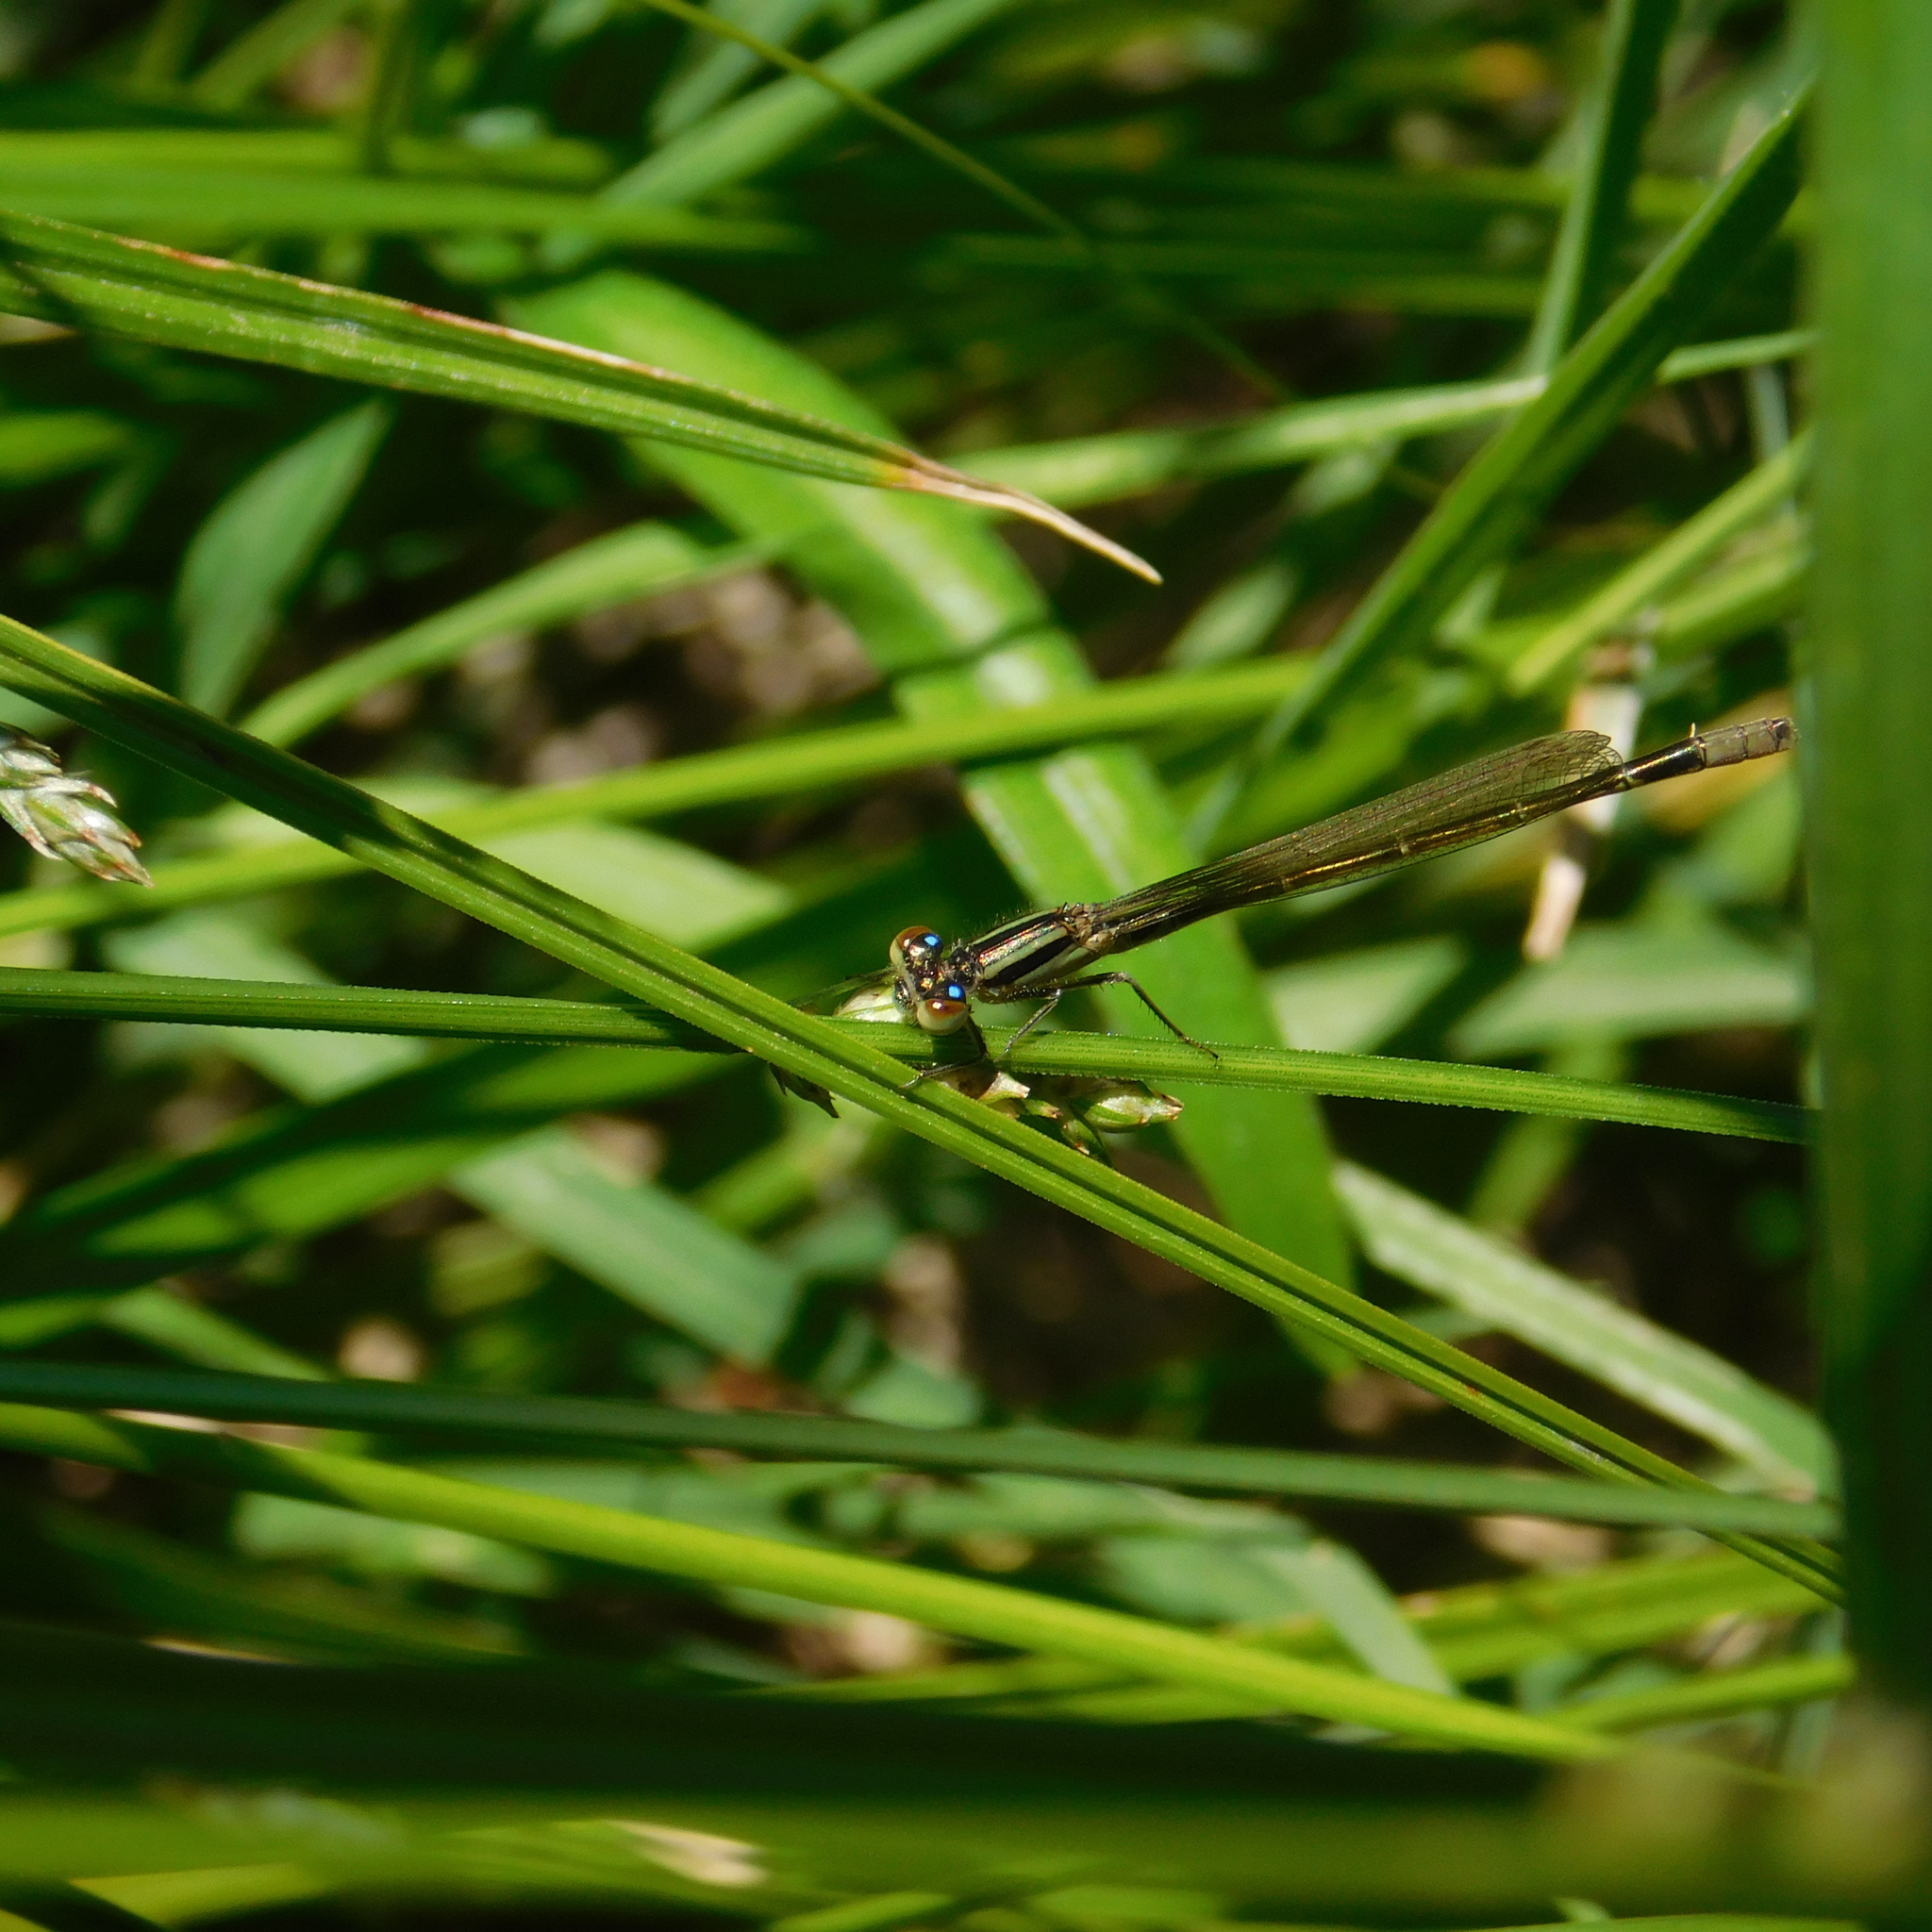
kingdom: Animalia
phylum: Arthropoda
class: Insecta
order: Odonata
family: Coenagrionidae
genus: Ischnura
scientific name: Ischnura fluviatilis
